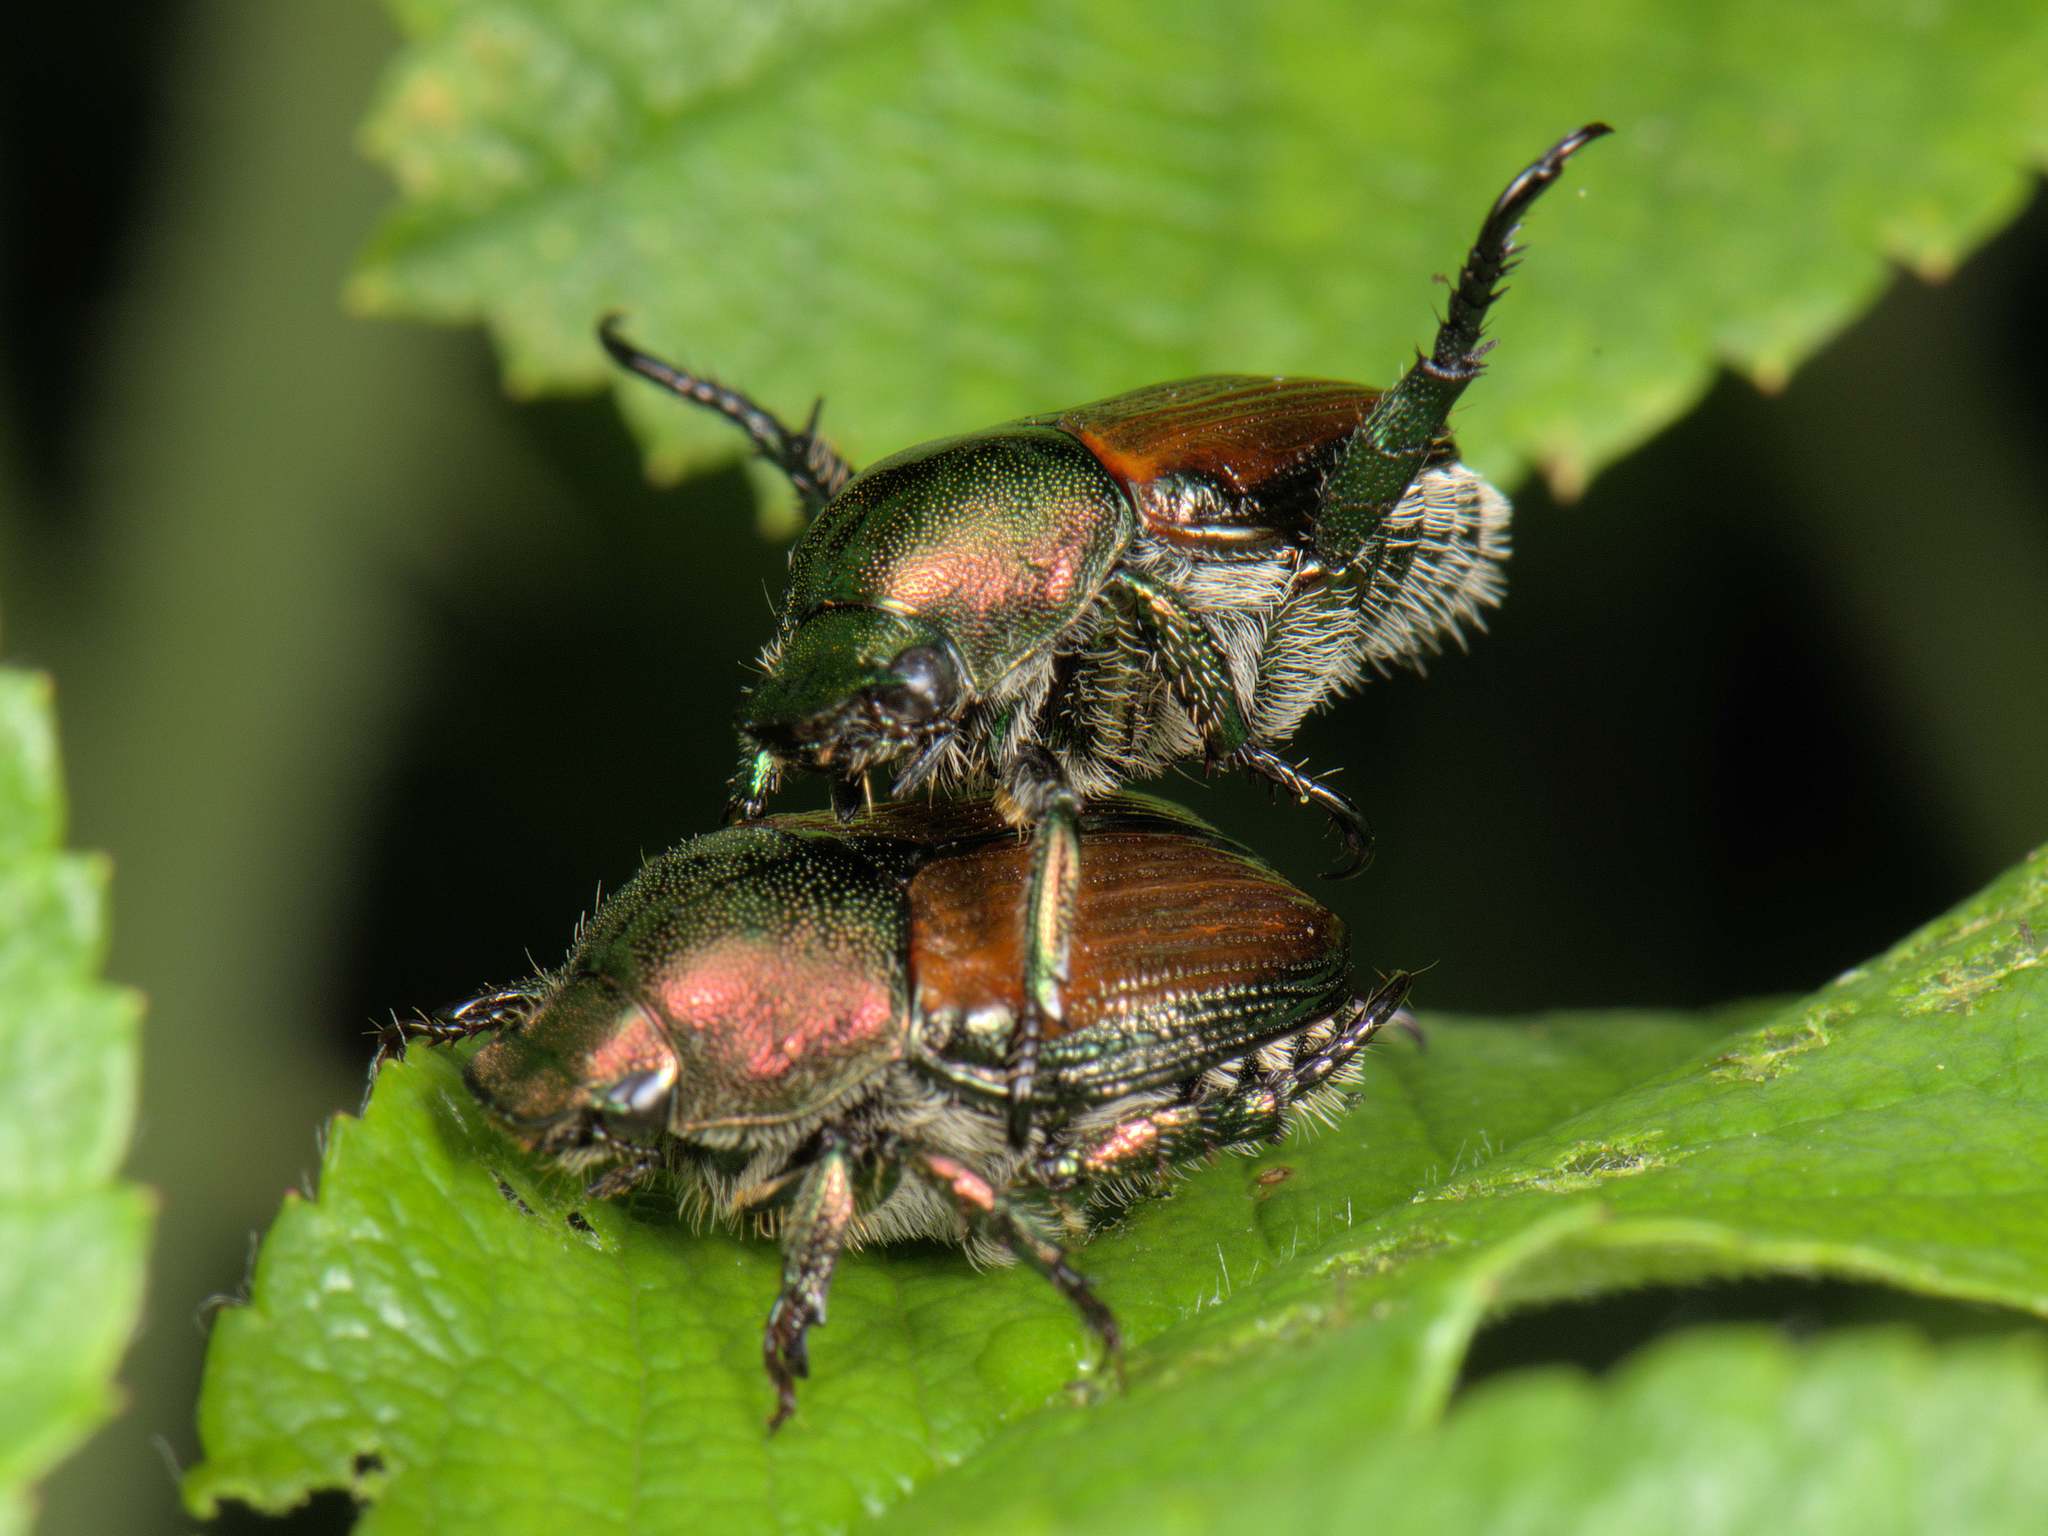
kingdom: Animalia
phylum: Arthropoda
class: Insecta
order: Coleoptera
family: Scarabaeidae
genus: Popillia
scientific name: Popillia japonica
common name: Japanese beetle
